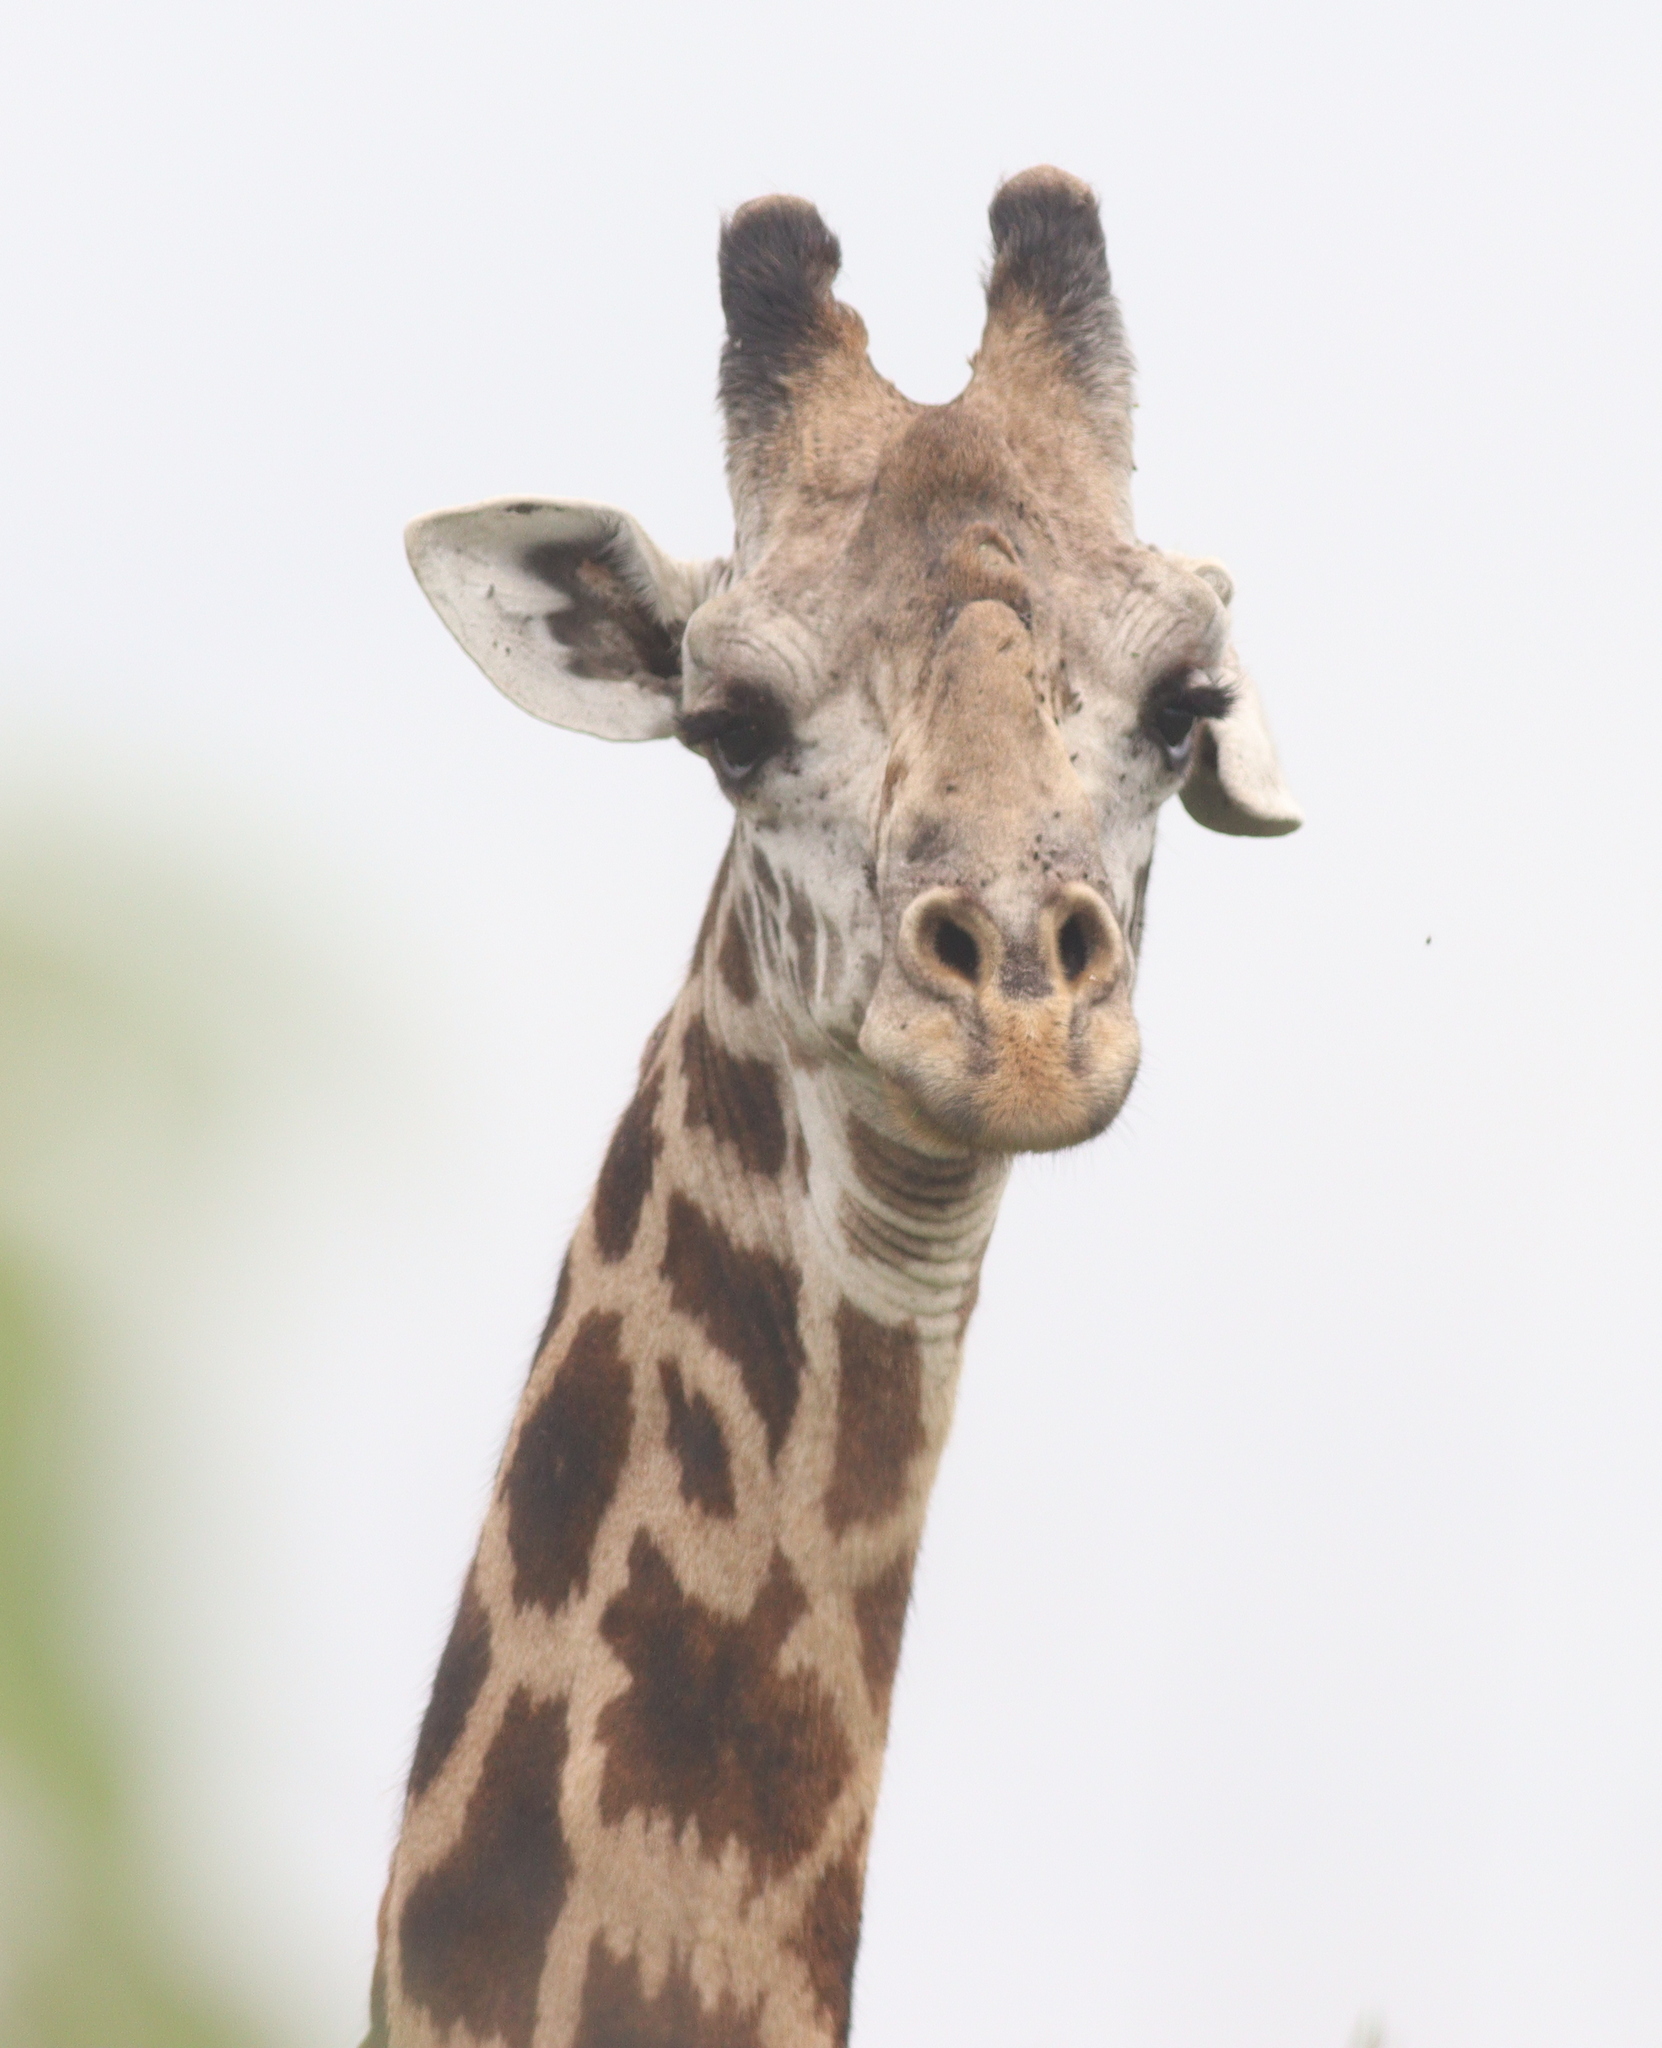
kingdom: Animalia
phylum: Chordata
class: Mammalia
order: Artiodactyla
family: Giraffidae
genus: Giraffa
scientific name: Giraffa tippelskirchi
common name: Masai giraffe
